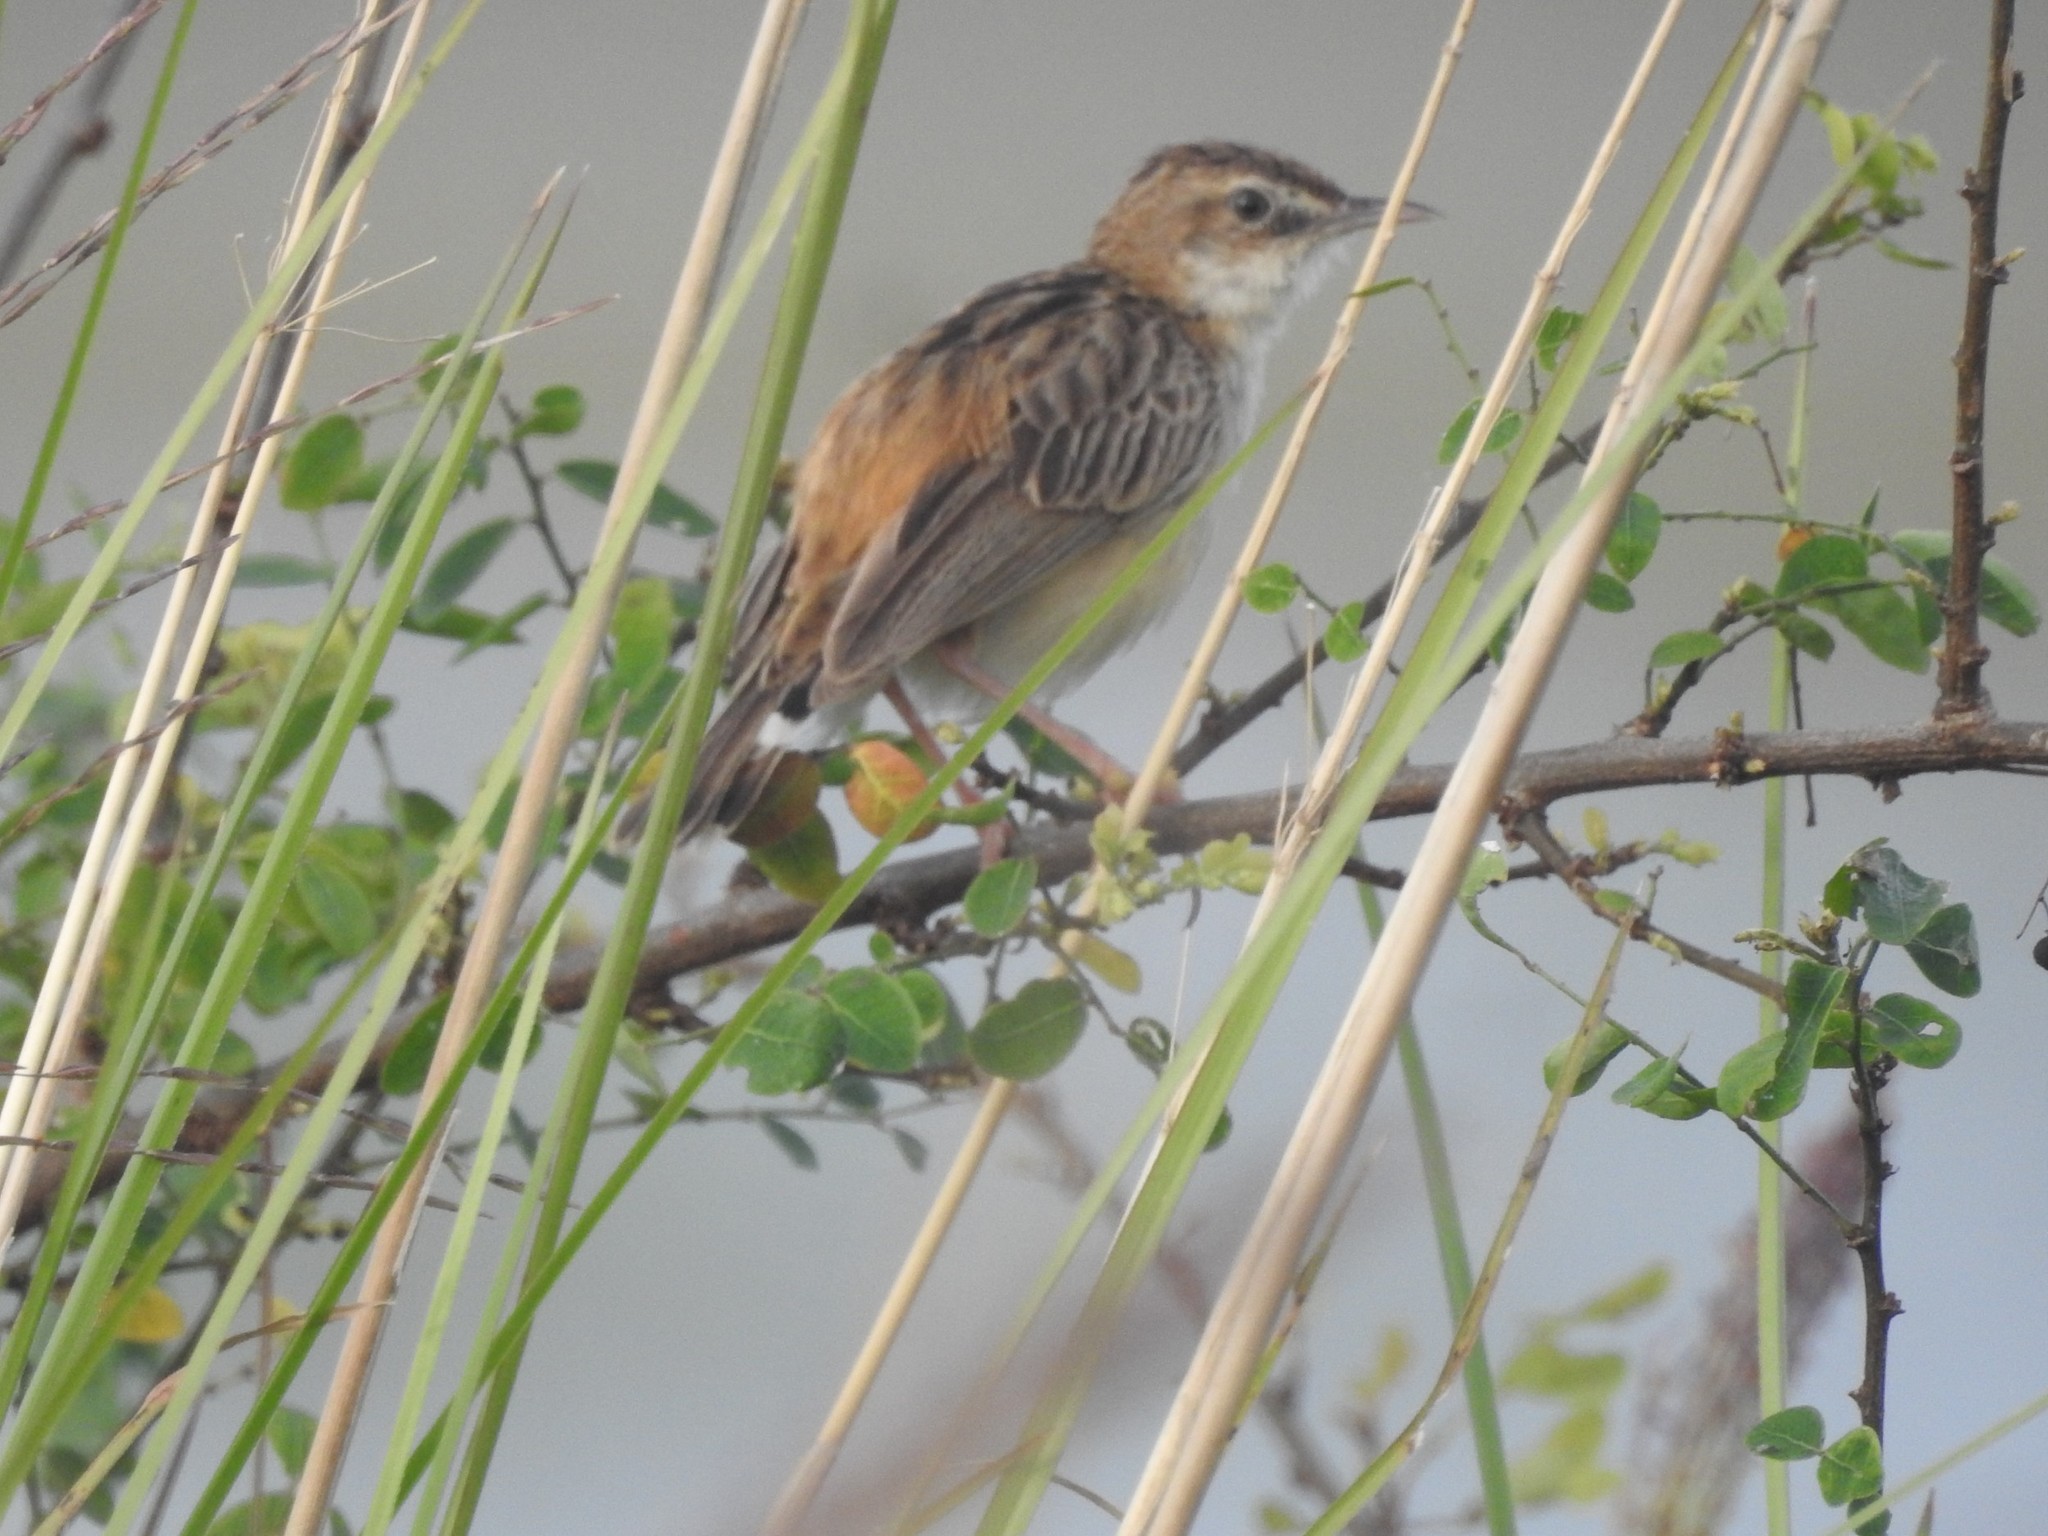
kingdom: Animalia
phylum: Chordata
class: Aves
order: Passeriformes
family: Cisticolidae
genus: Cisticola
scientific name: Cisticola juncidis
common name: Zitting cisticola
